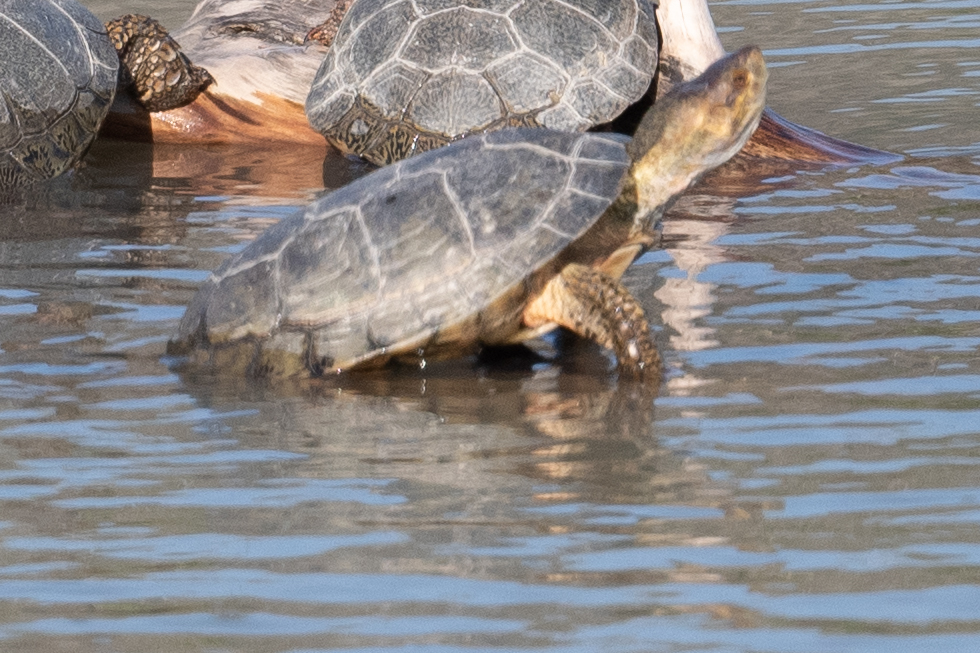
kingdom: Animalia
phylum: Chordata
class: Testudines
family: Emydidae
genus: Actinemys
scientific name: Actinemys marmorata
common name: Western pond turtle
